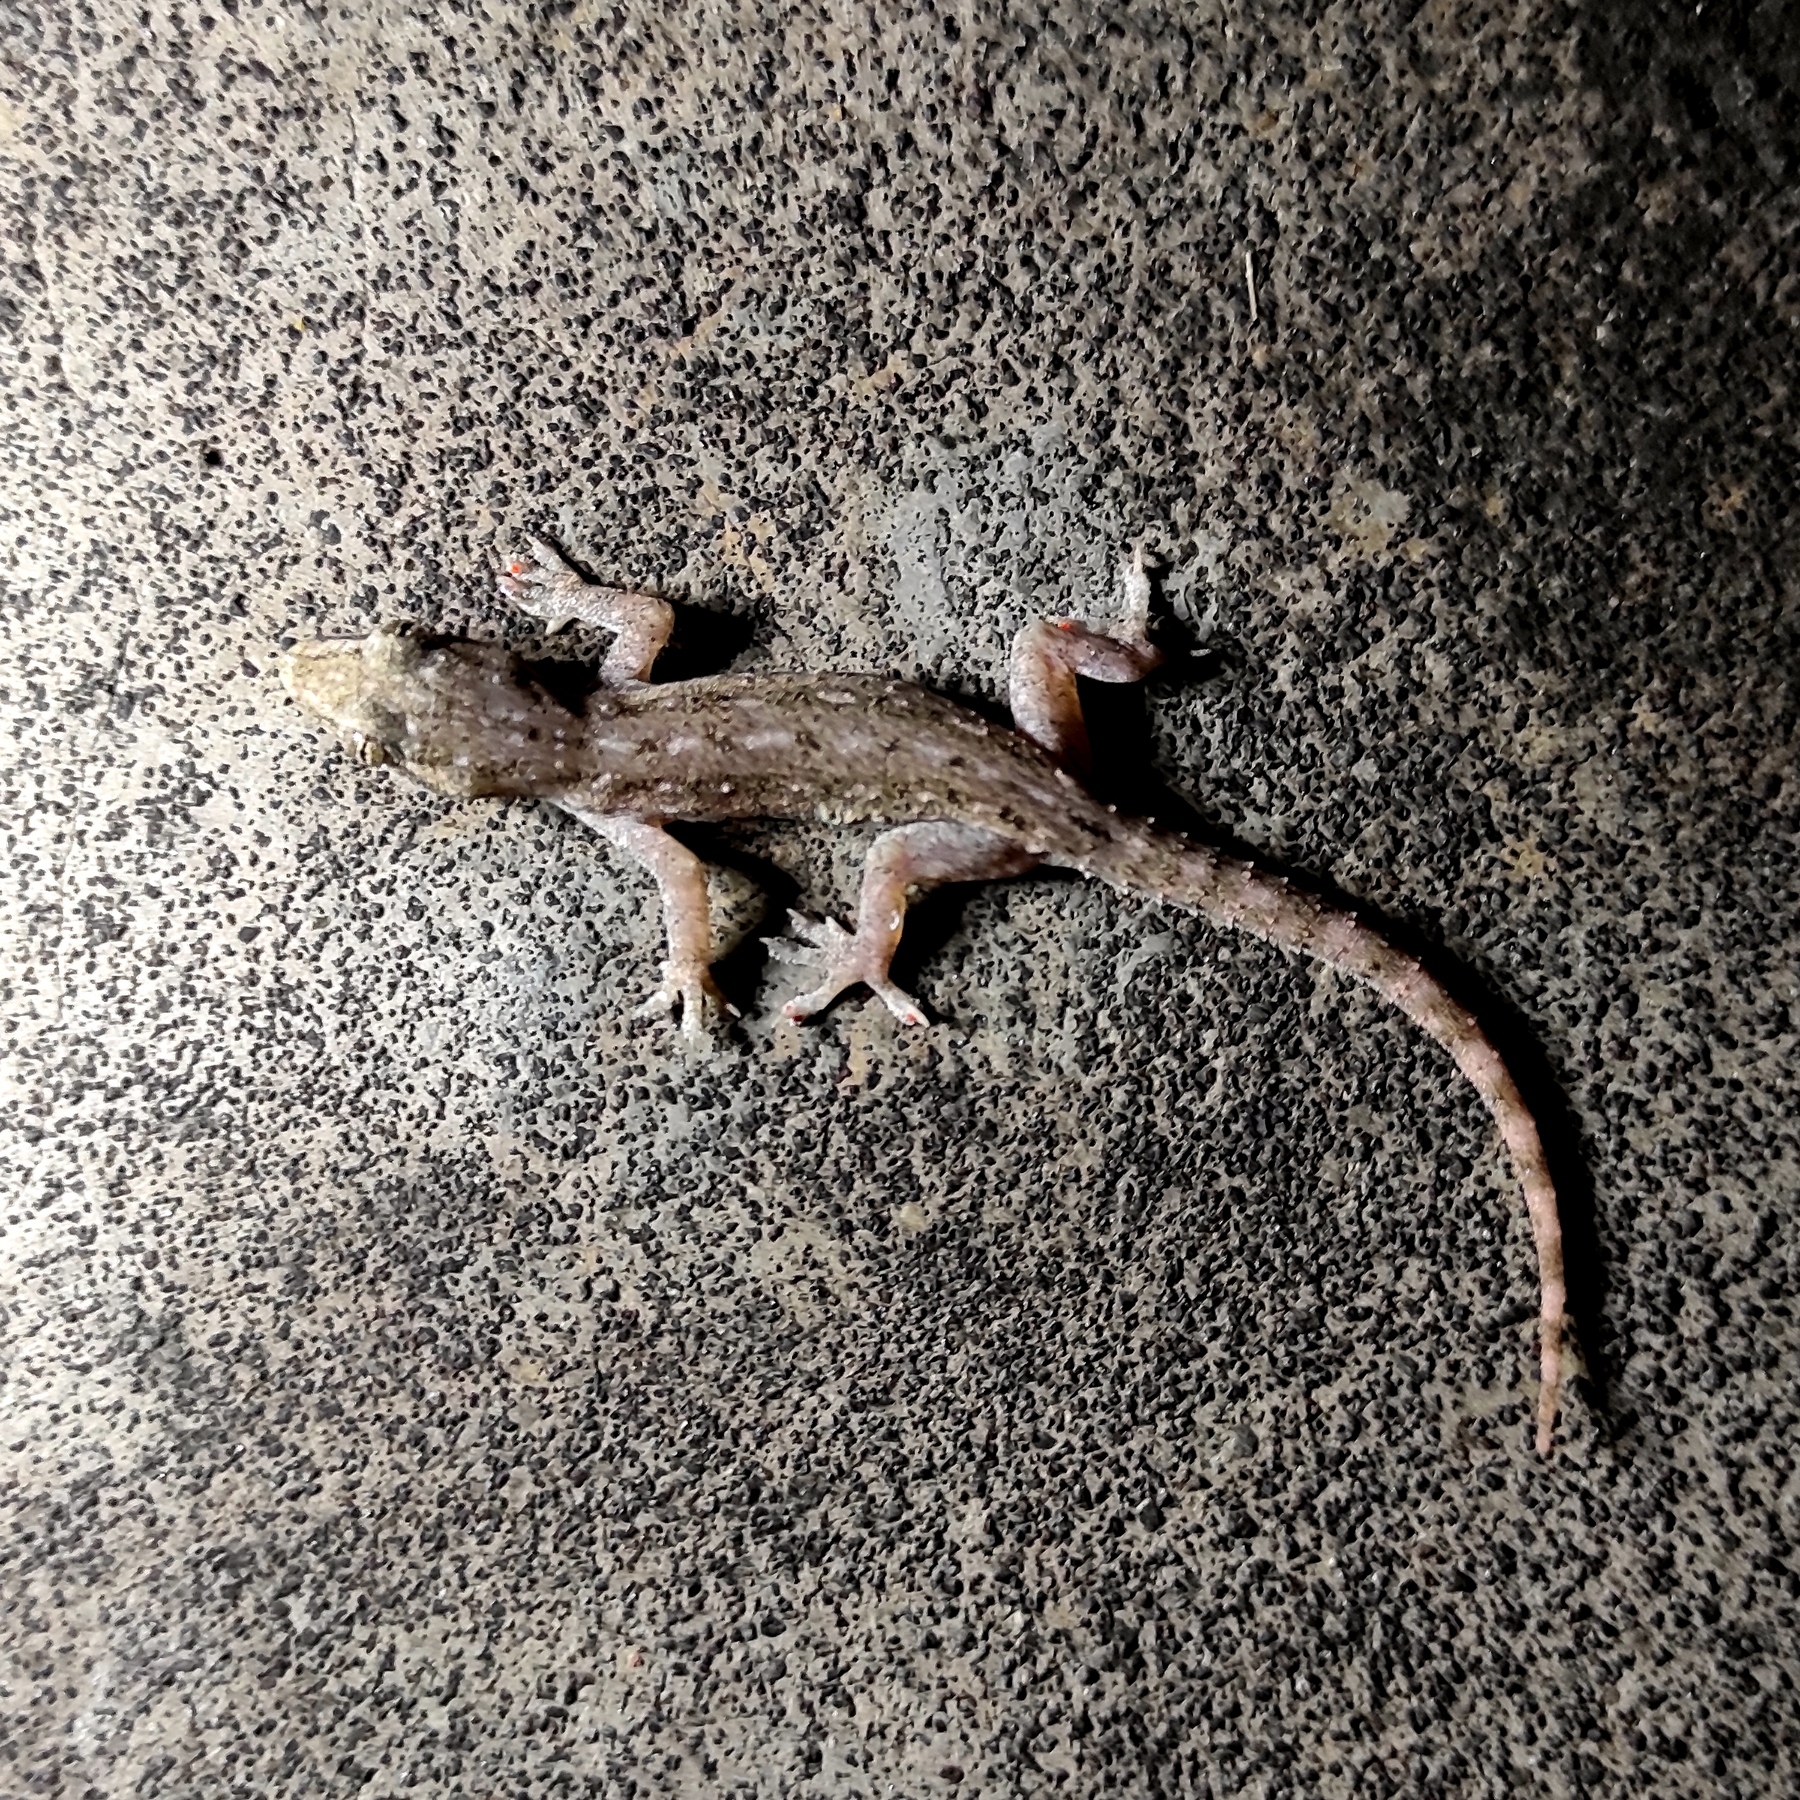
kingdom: Animalia
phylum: Chordata
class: Squamata
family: Gekkonidae
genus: Hemidactylus
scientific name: Hemidactylus frenatus
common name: Common house gecko
